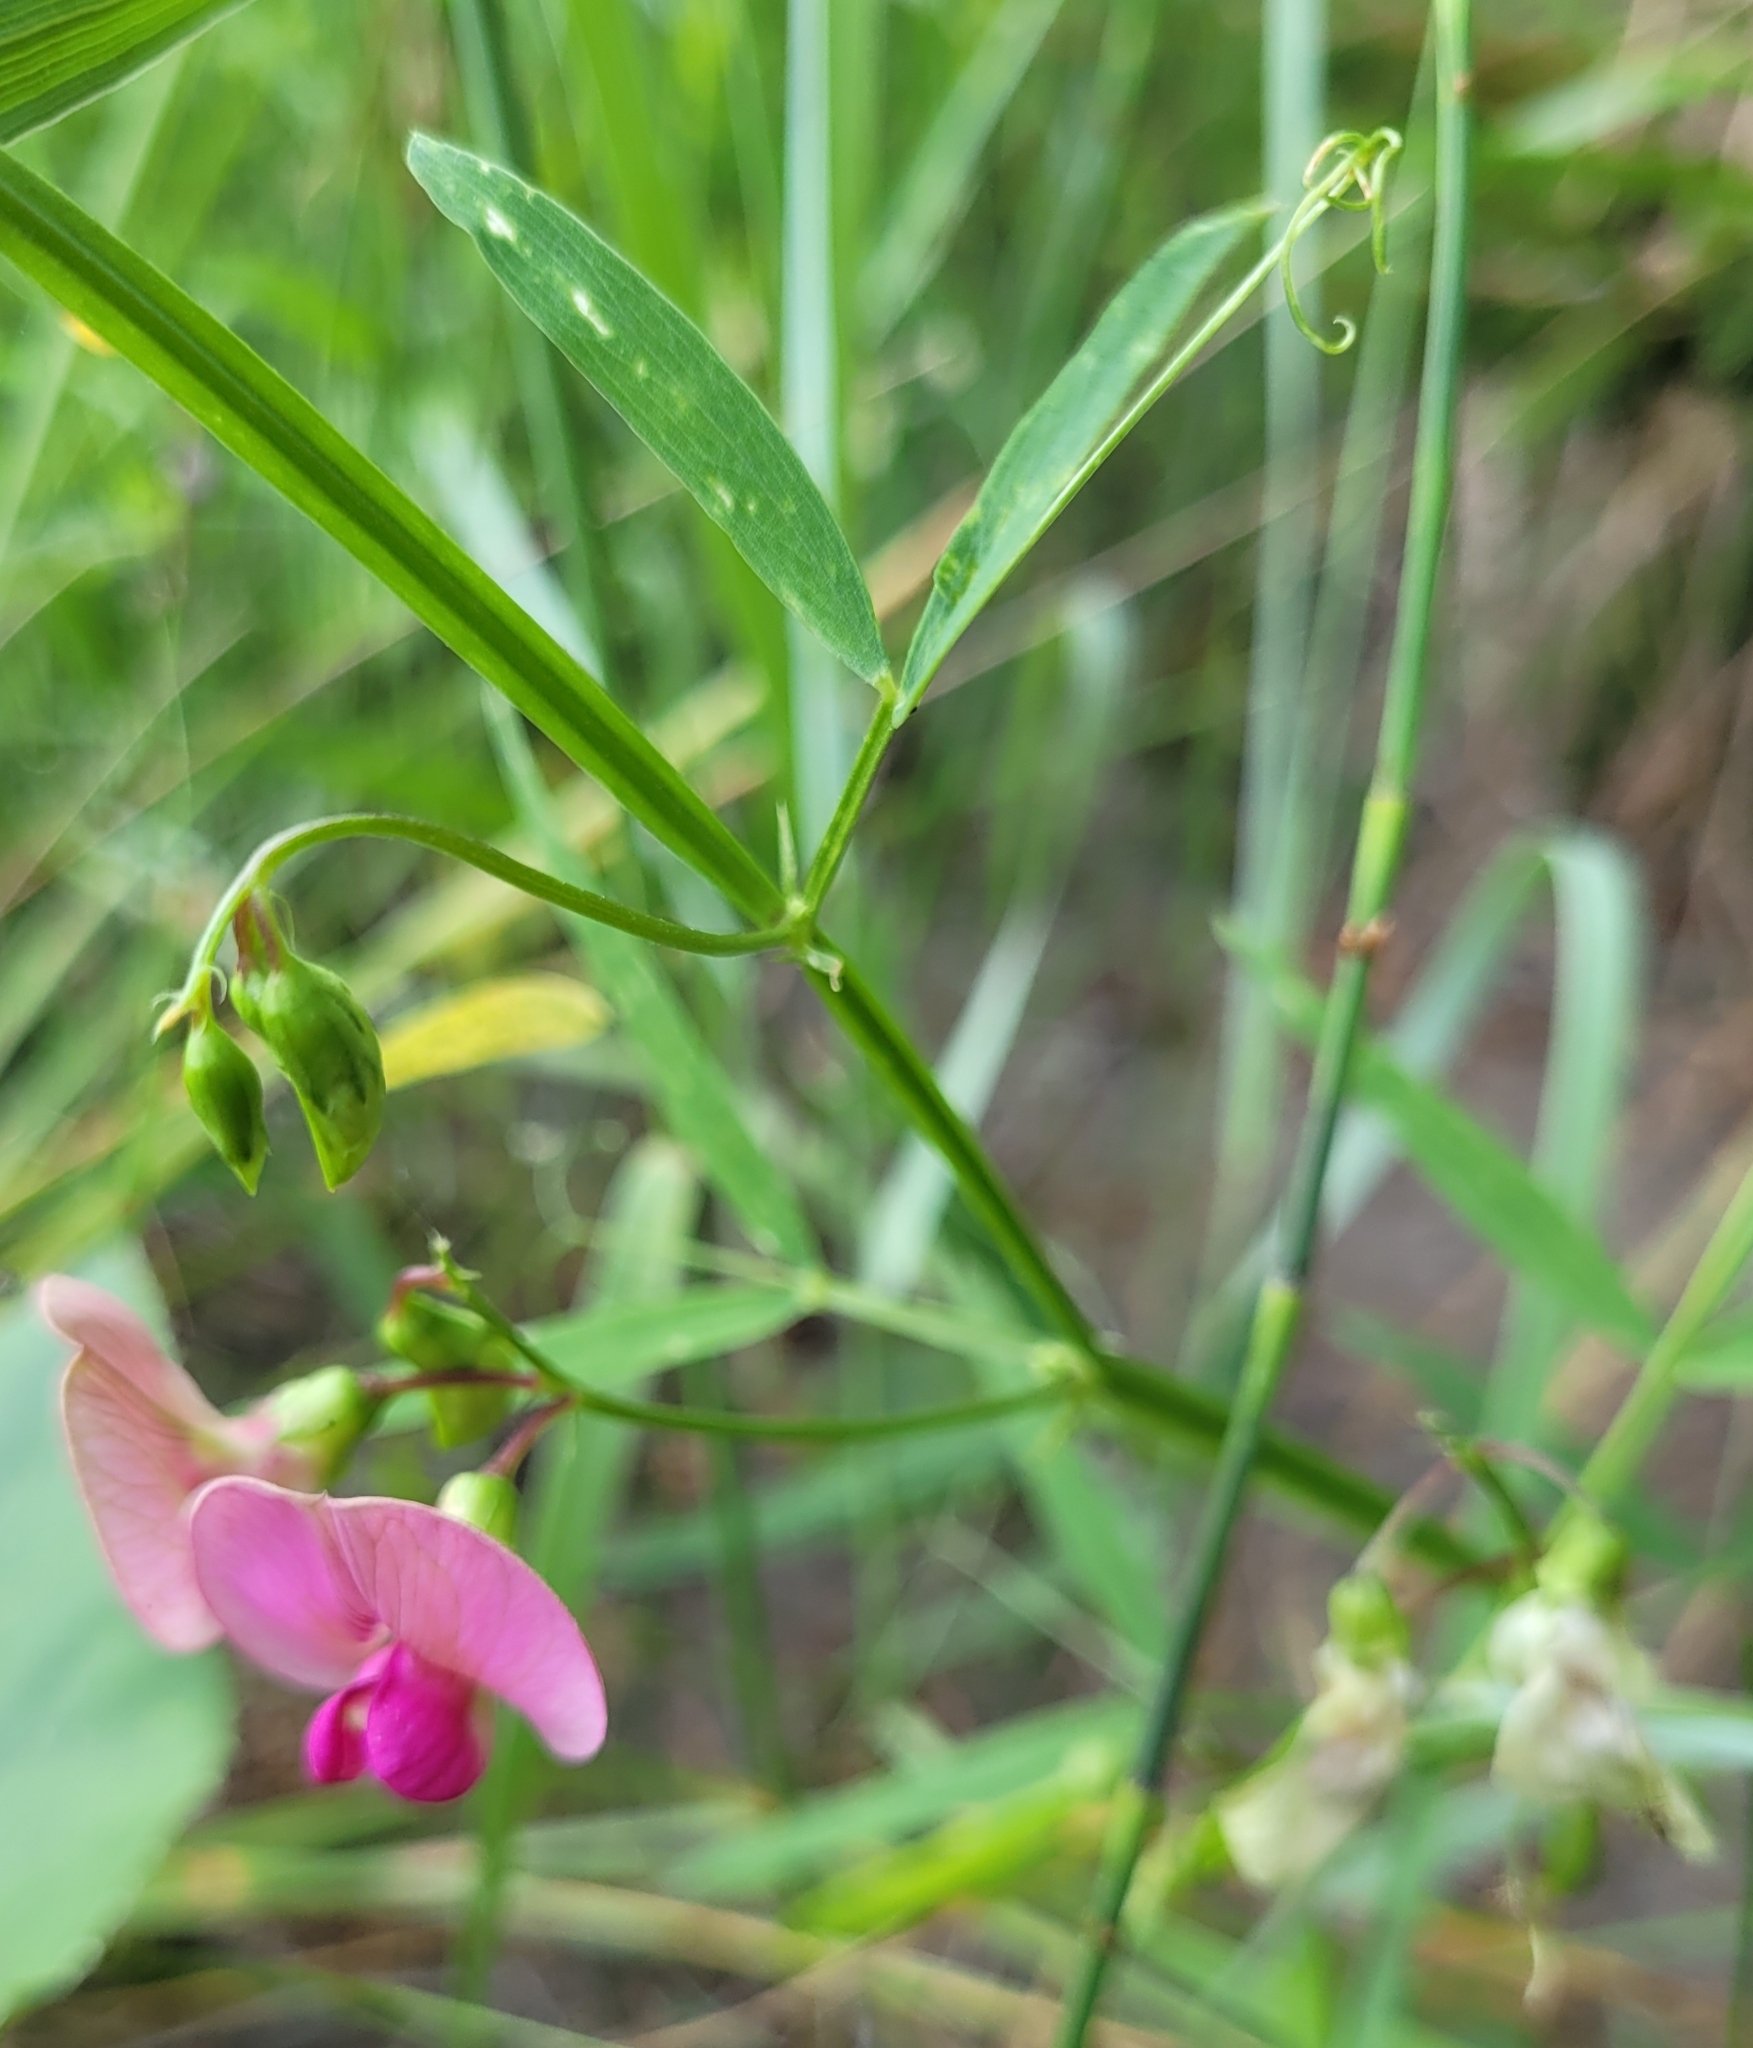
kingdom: Plantae
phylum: Tracheophyta
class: Magnoliopsida
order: Fabales
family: Fabaceae
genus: Lathyrus
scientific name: Lathyrus sylvestris
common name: Flat pea
